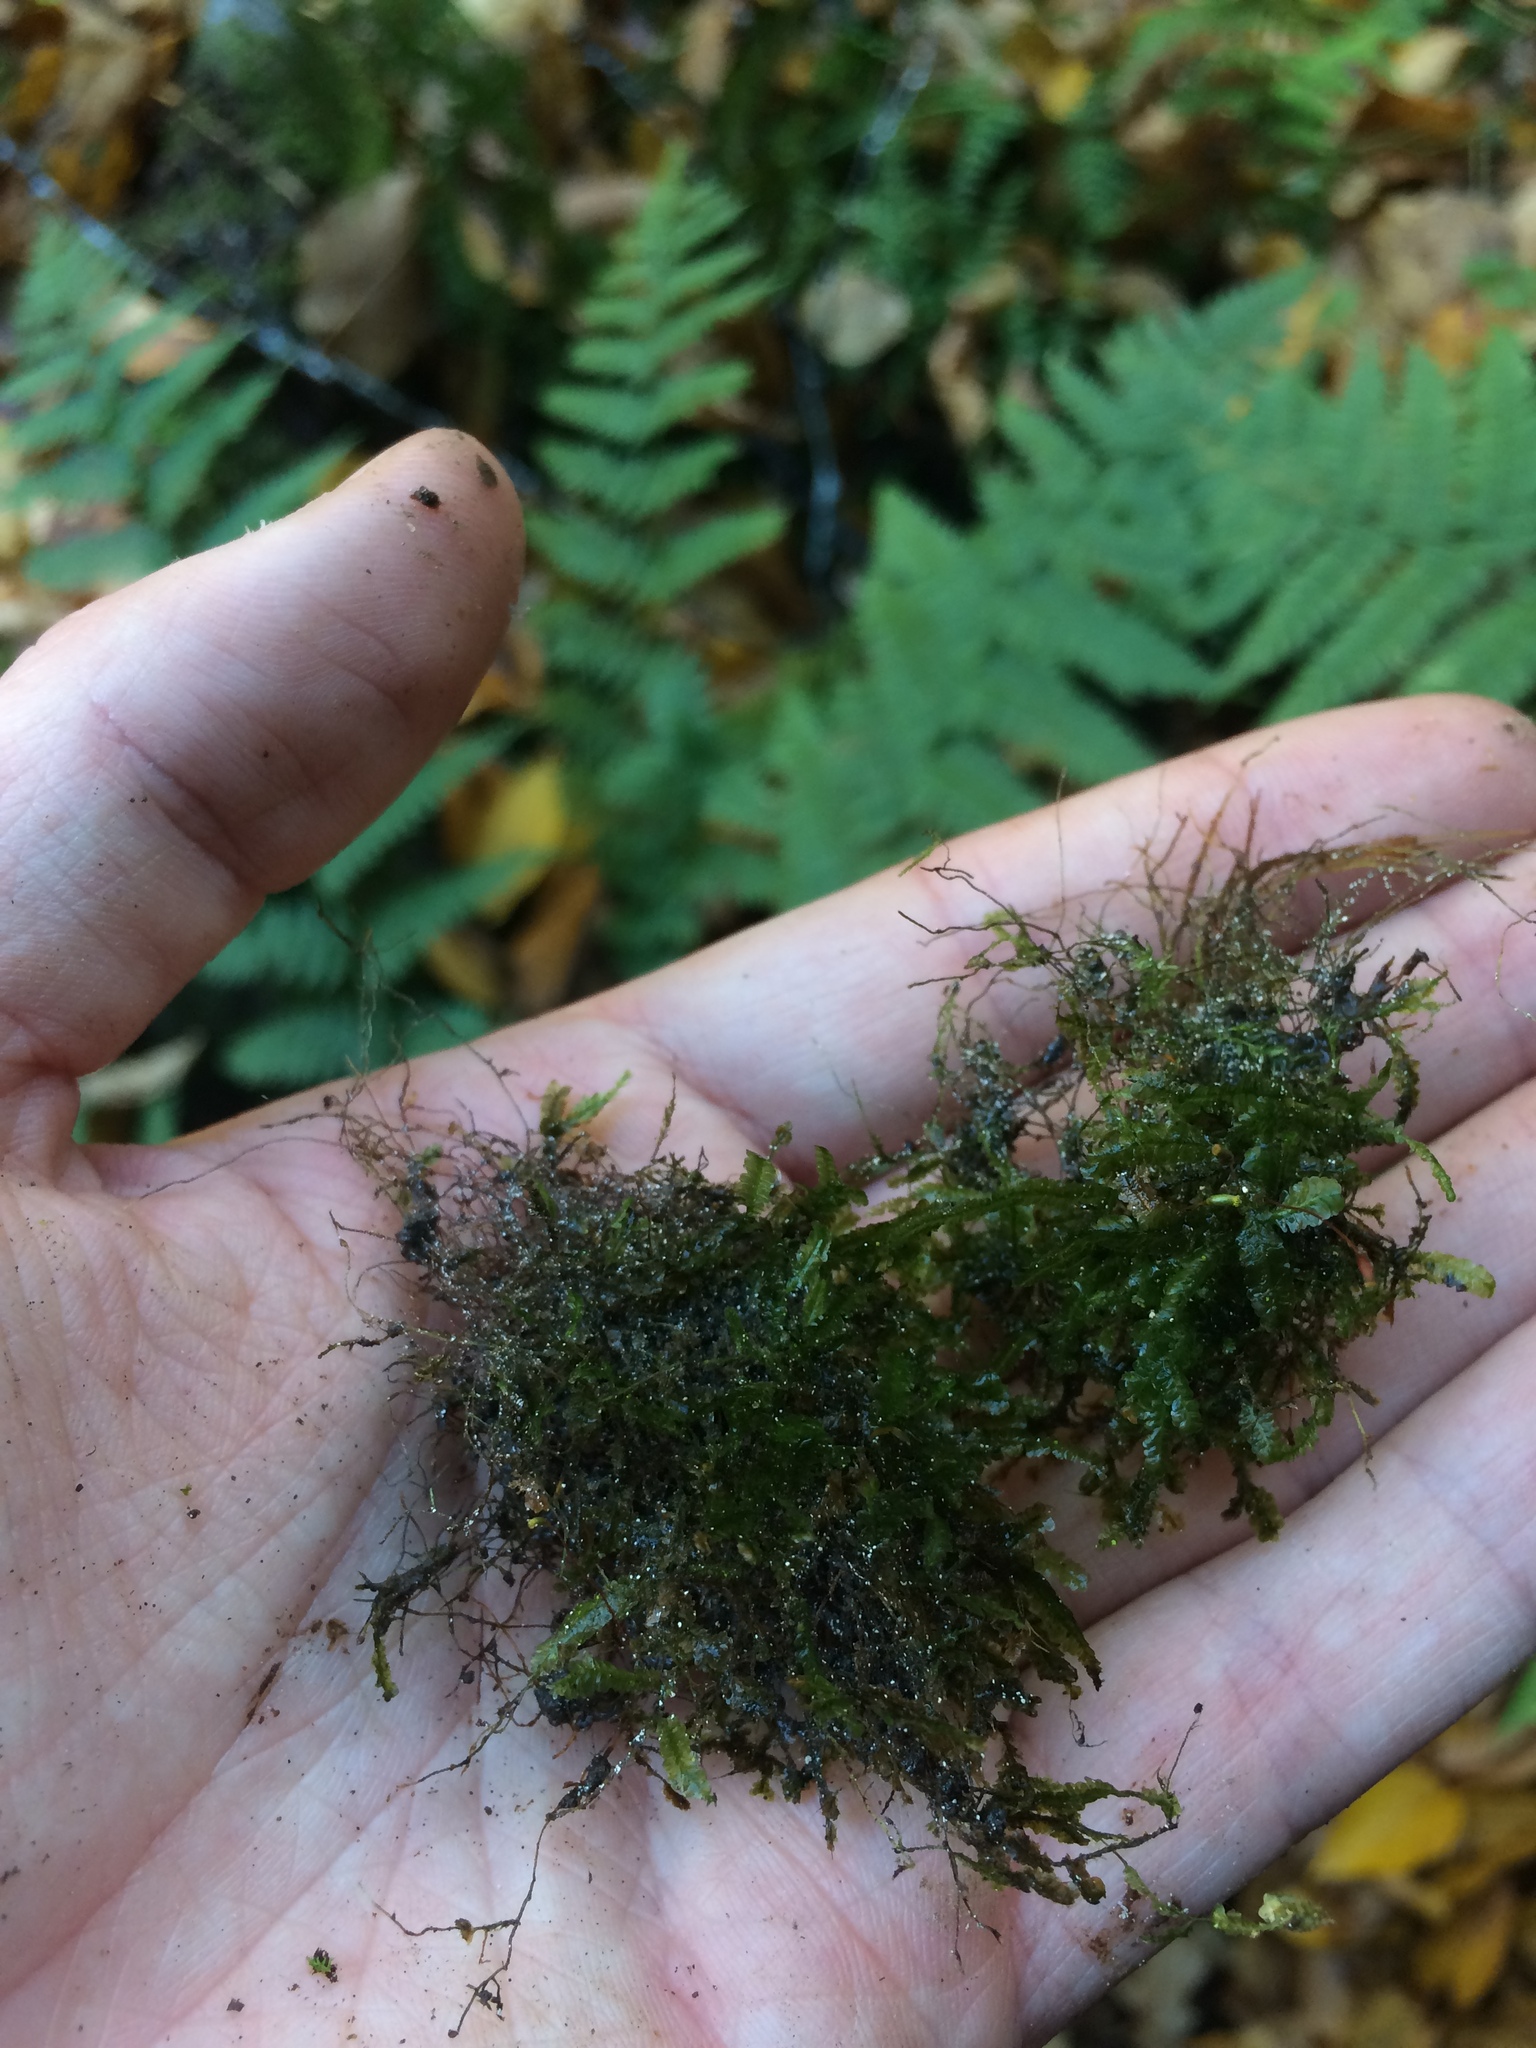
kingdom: Plantae
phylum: Bryophyta
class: Bryopsida
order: Hypnales
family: Neckeraceae
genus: Homalia
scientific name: Homalia trichomanoides
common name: Lime homalia moss
